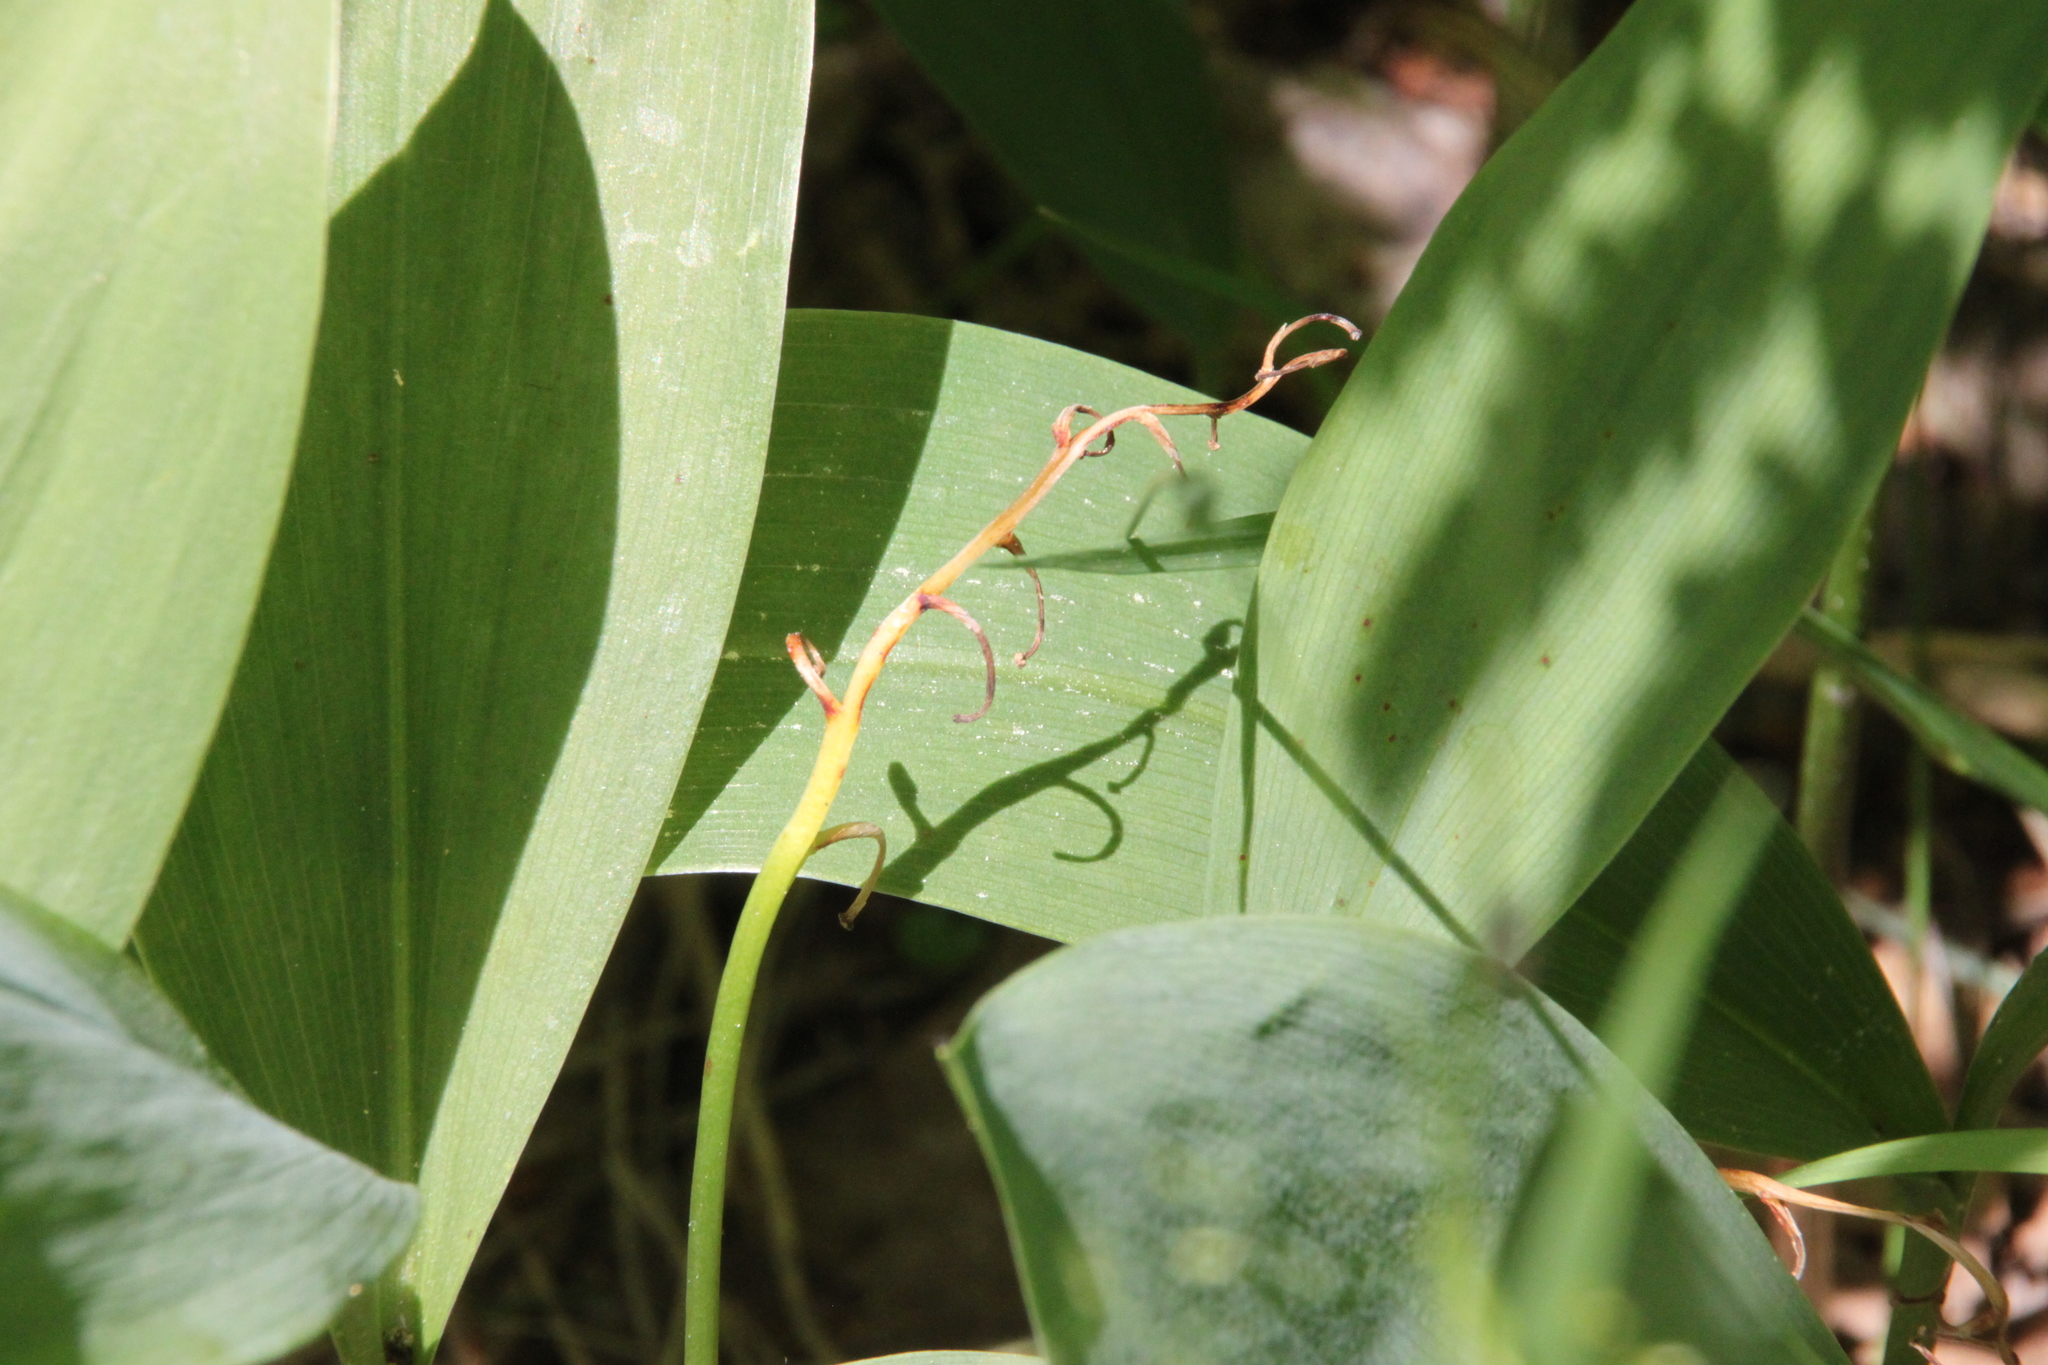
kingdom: Plantae
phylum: Tracheophyta
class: Liliopsida
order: Asparagales
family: Asparagaceae
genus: Convallaria
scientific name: Convallaria majalis
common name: Lily-of-the-valley
